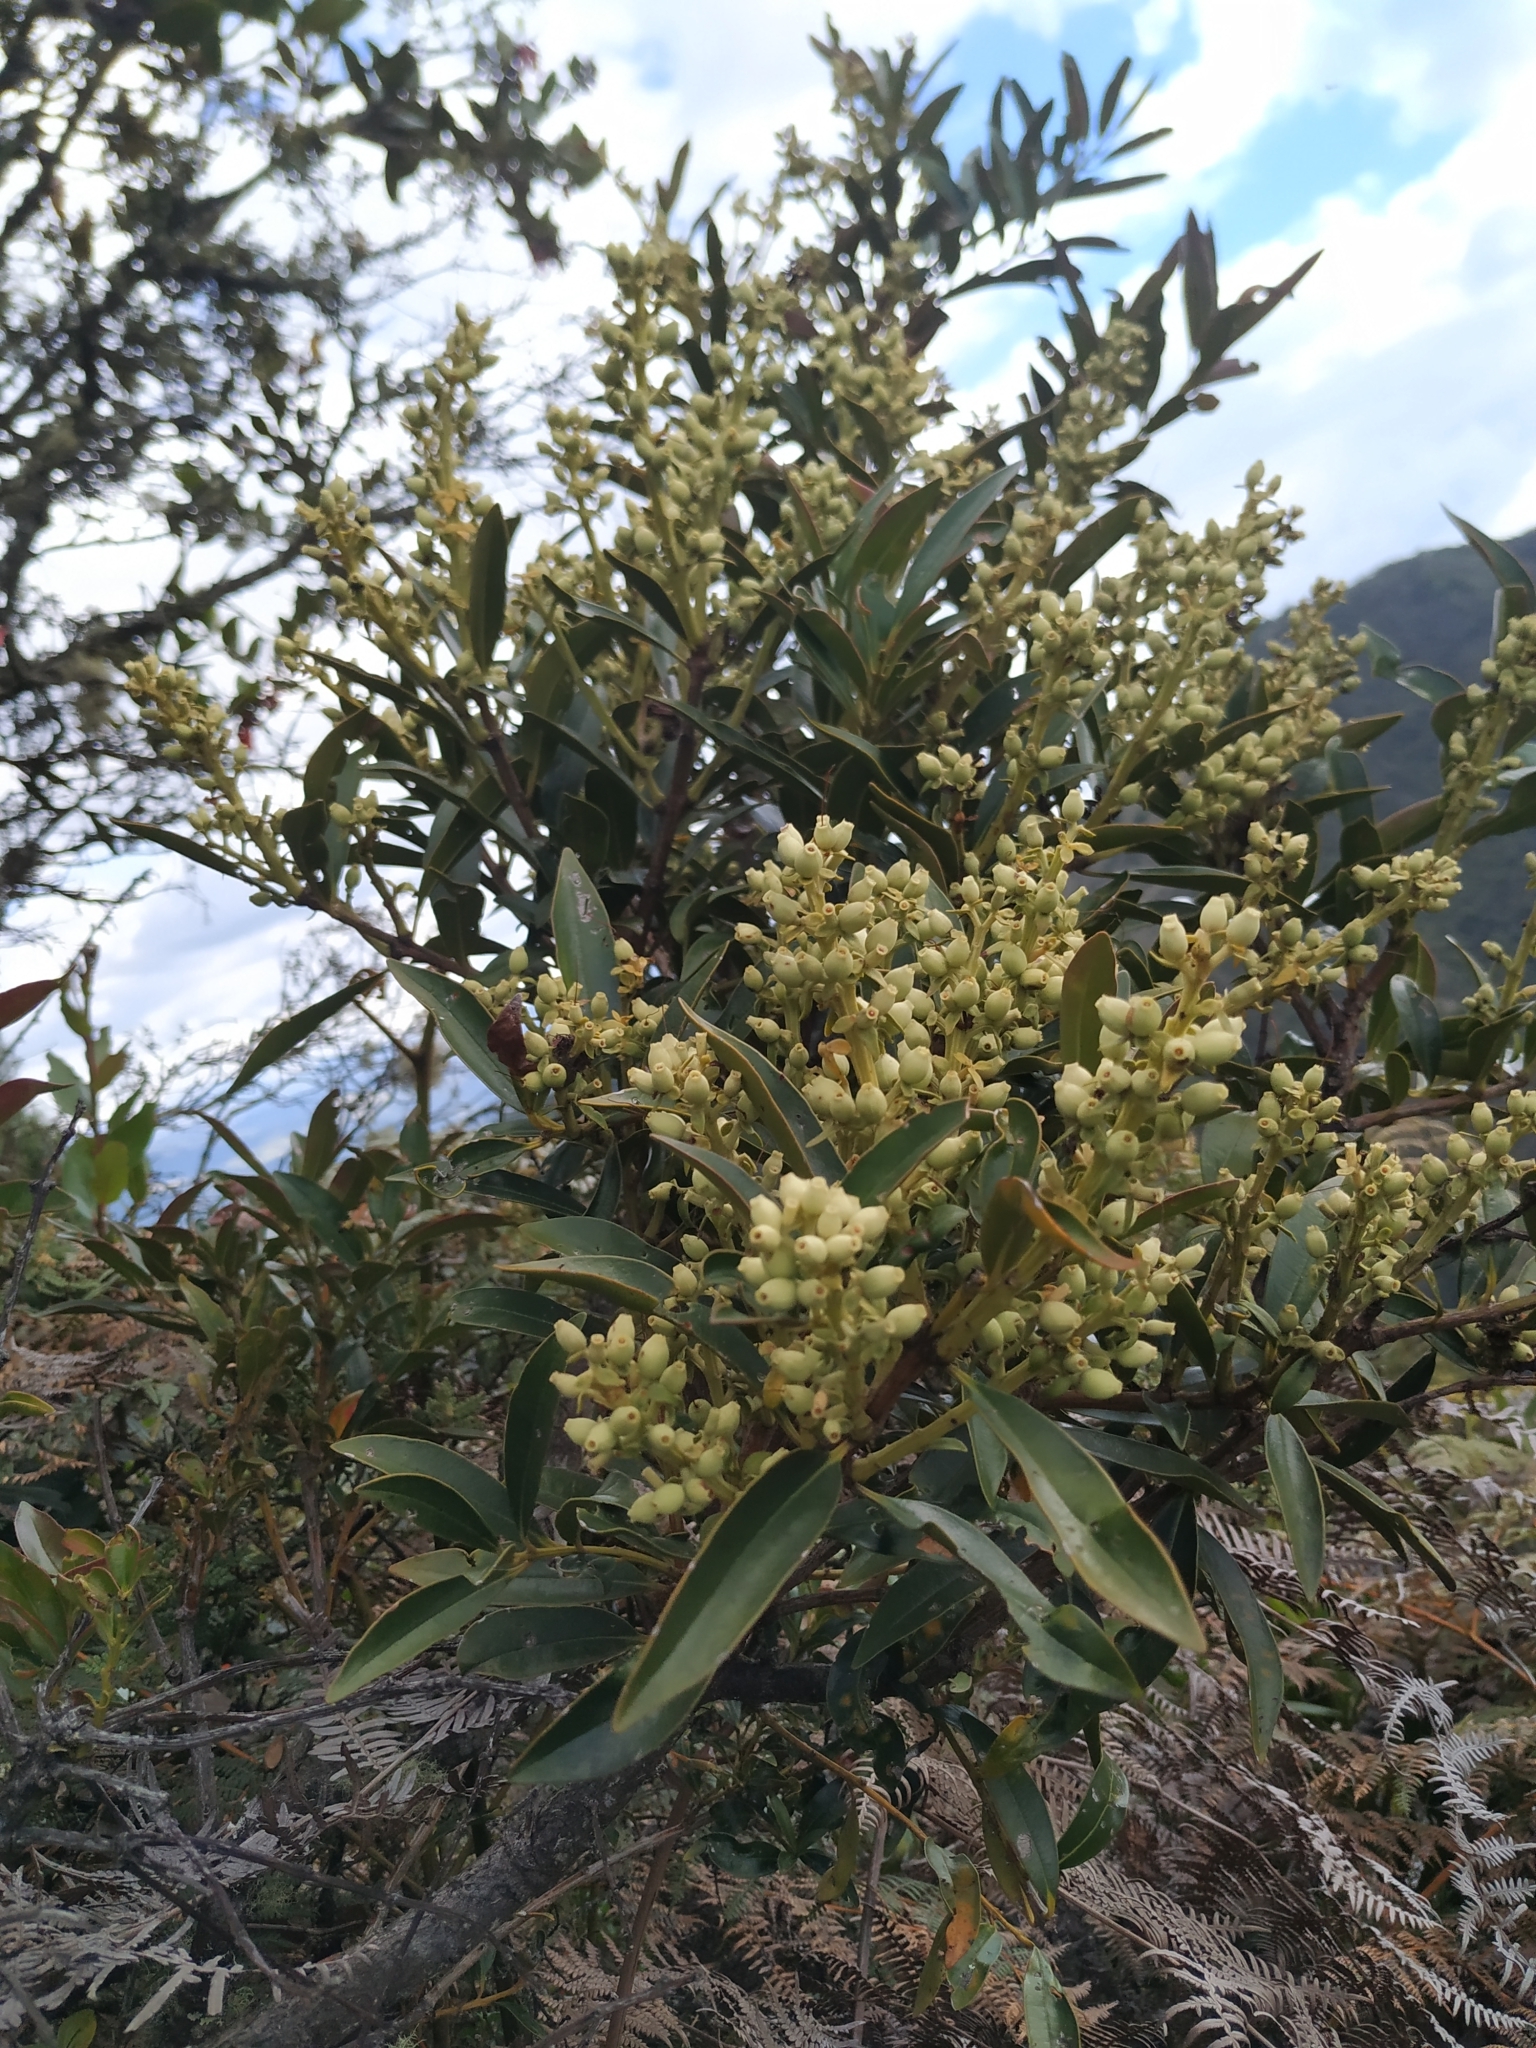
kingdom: Plantae
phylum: Tracheophyta
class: Magnoliopsida
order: Santalales
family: Loranthaceae
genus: Gaiadendron
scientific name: Gaiadendron punctatum
